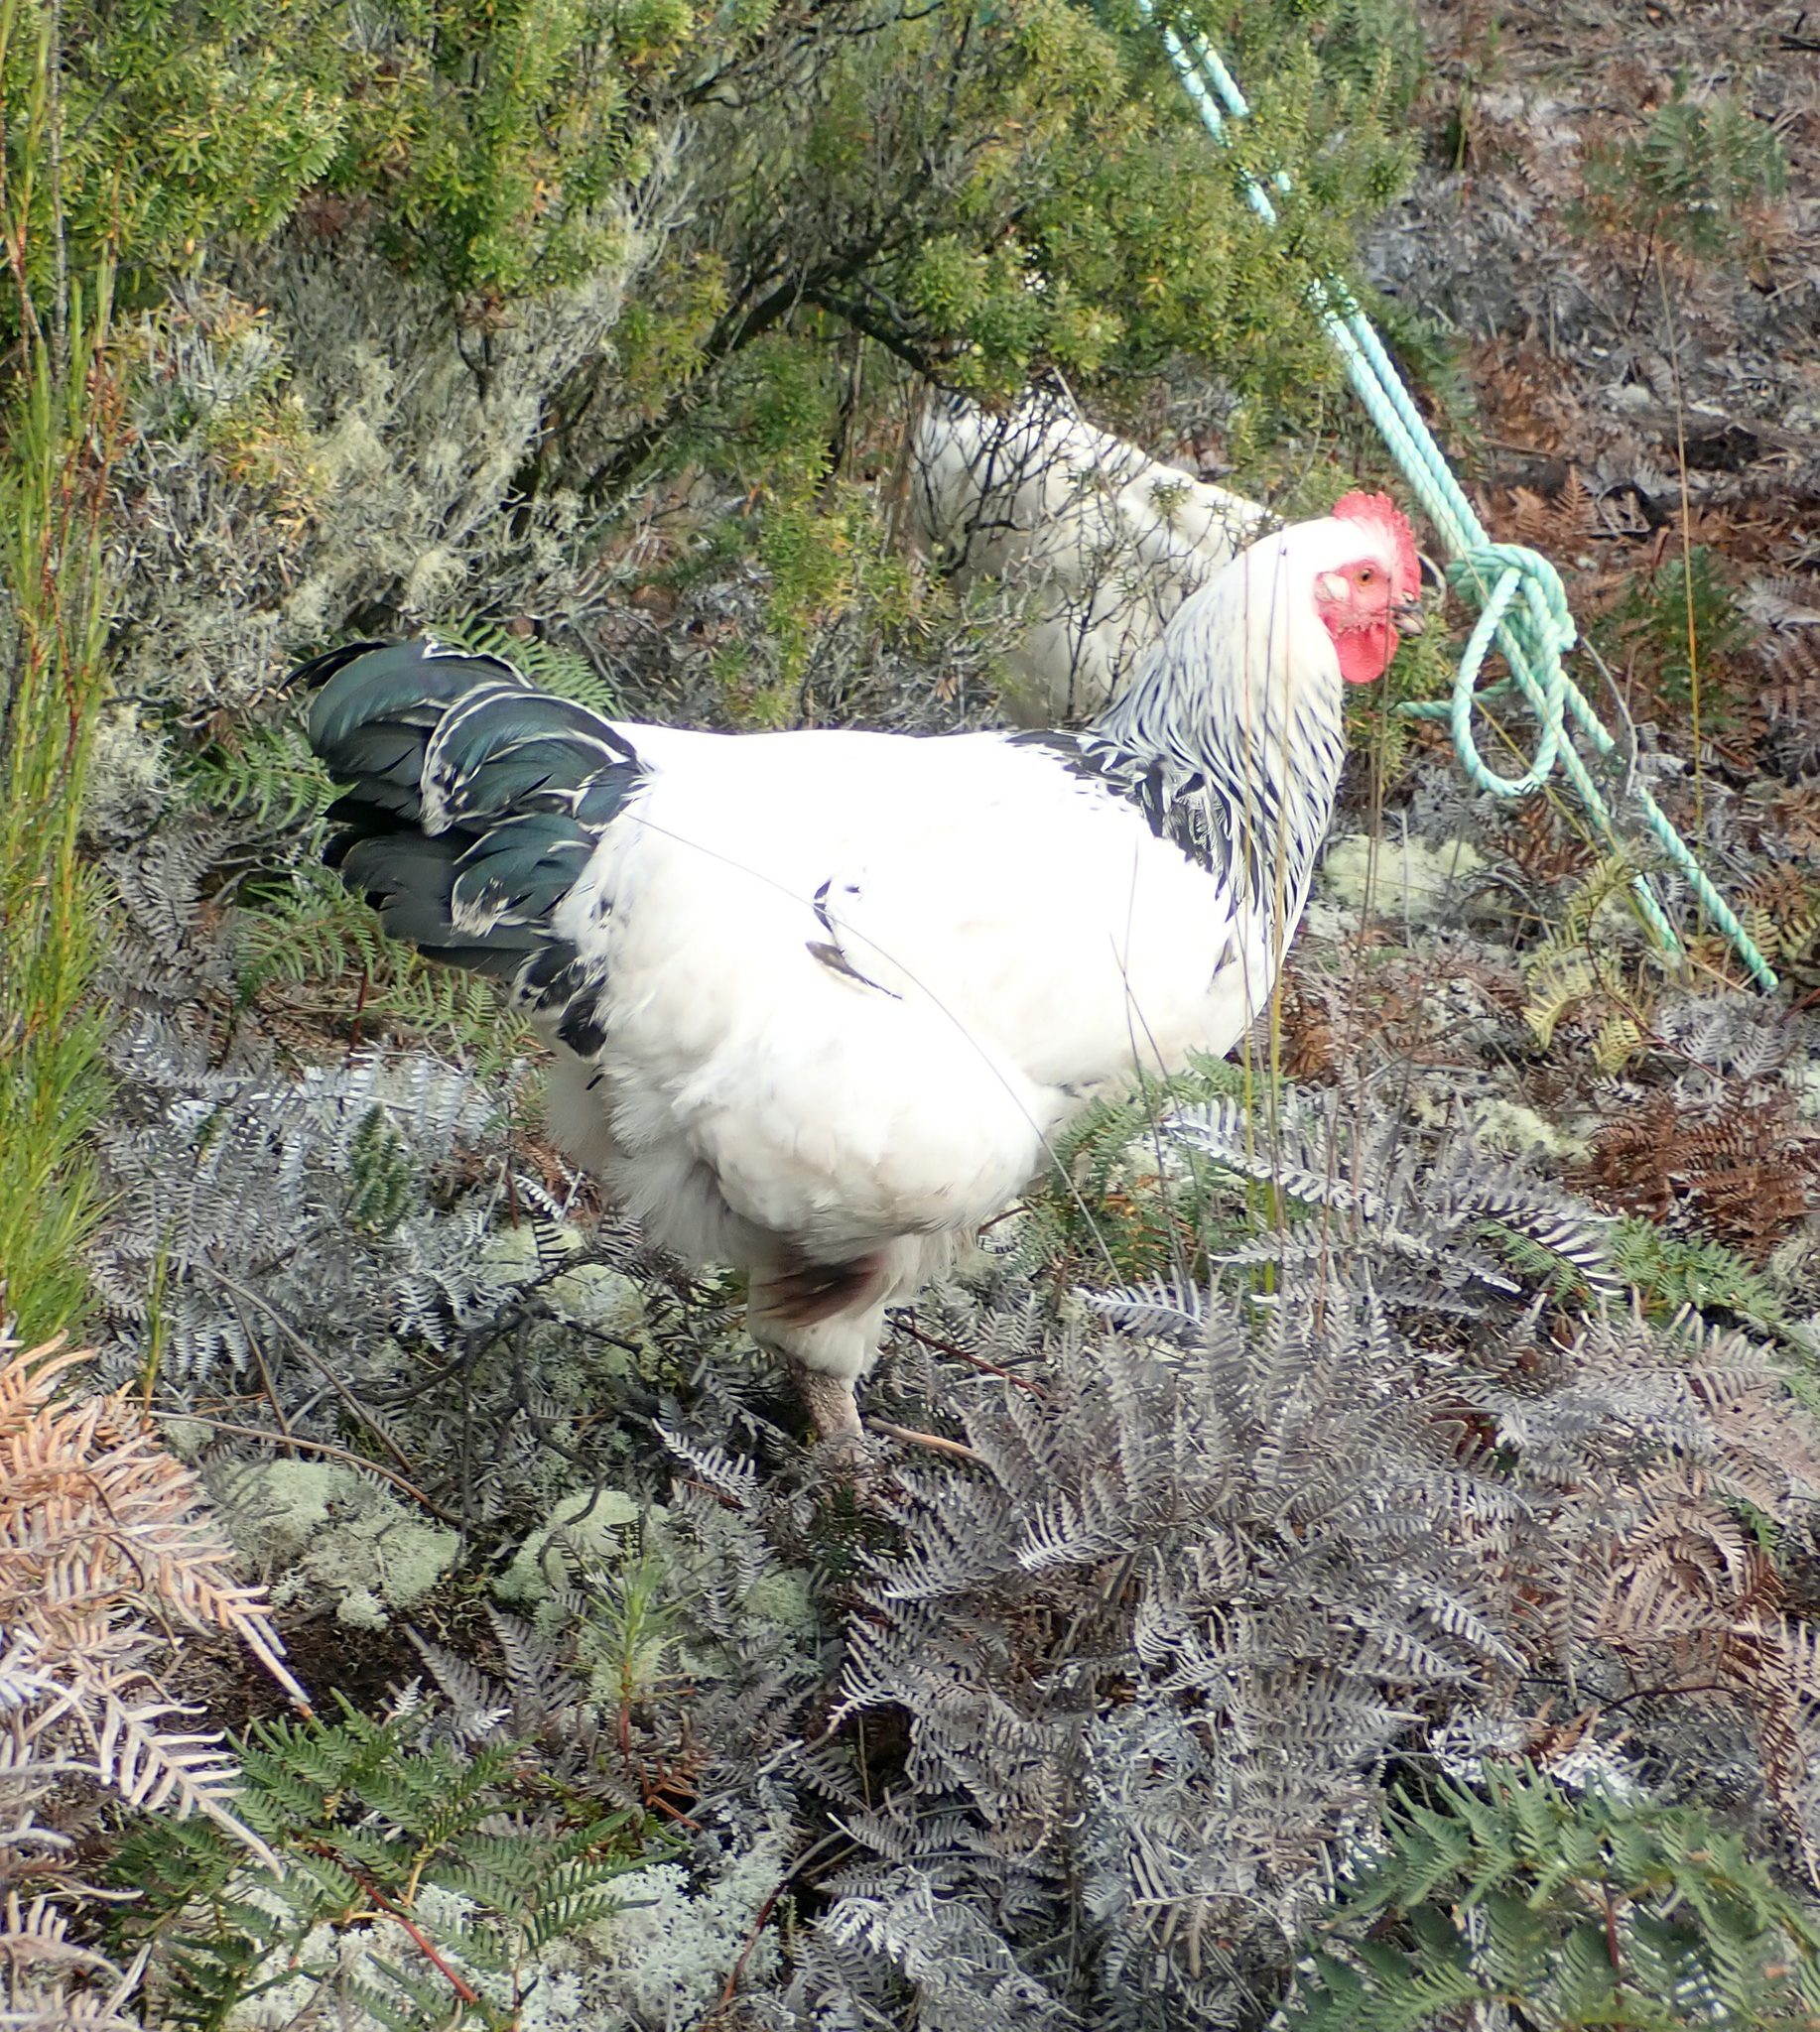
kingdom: Animalia
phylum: Chordata
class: Aves
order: Galliformes
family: Phasianidae
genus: Gallus
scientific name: Gallus gallus
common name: Red junglefowl
